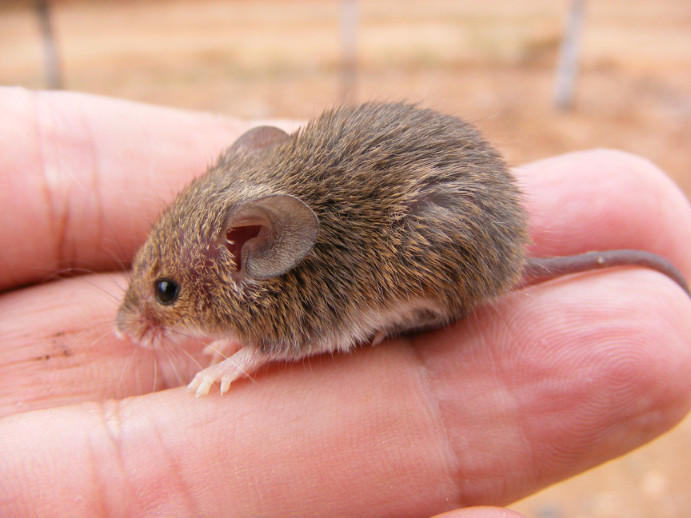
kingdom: Animalia
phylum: Chordata
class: Mammalia
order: Rodentia
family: Muridae
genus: Mus
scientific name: Mus minutoides
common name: Southern african pygmy mouse
